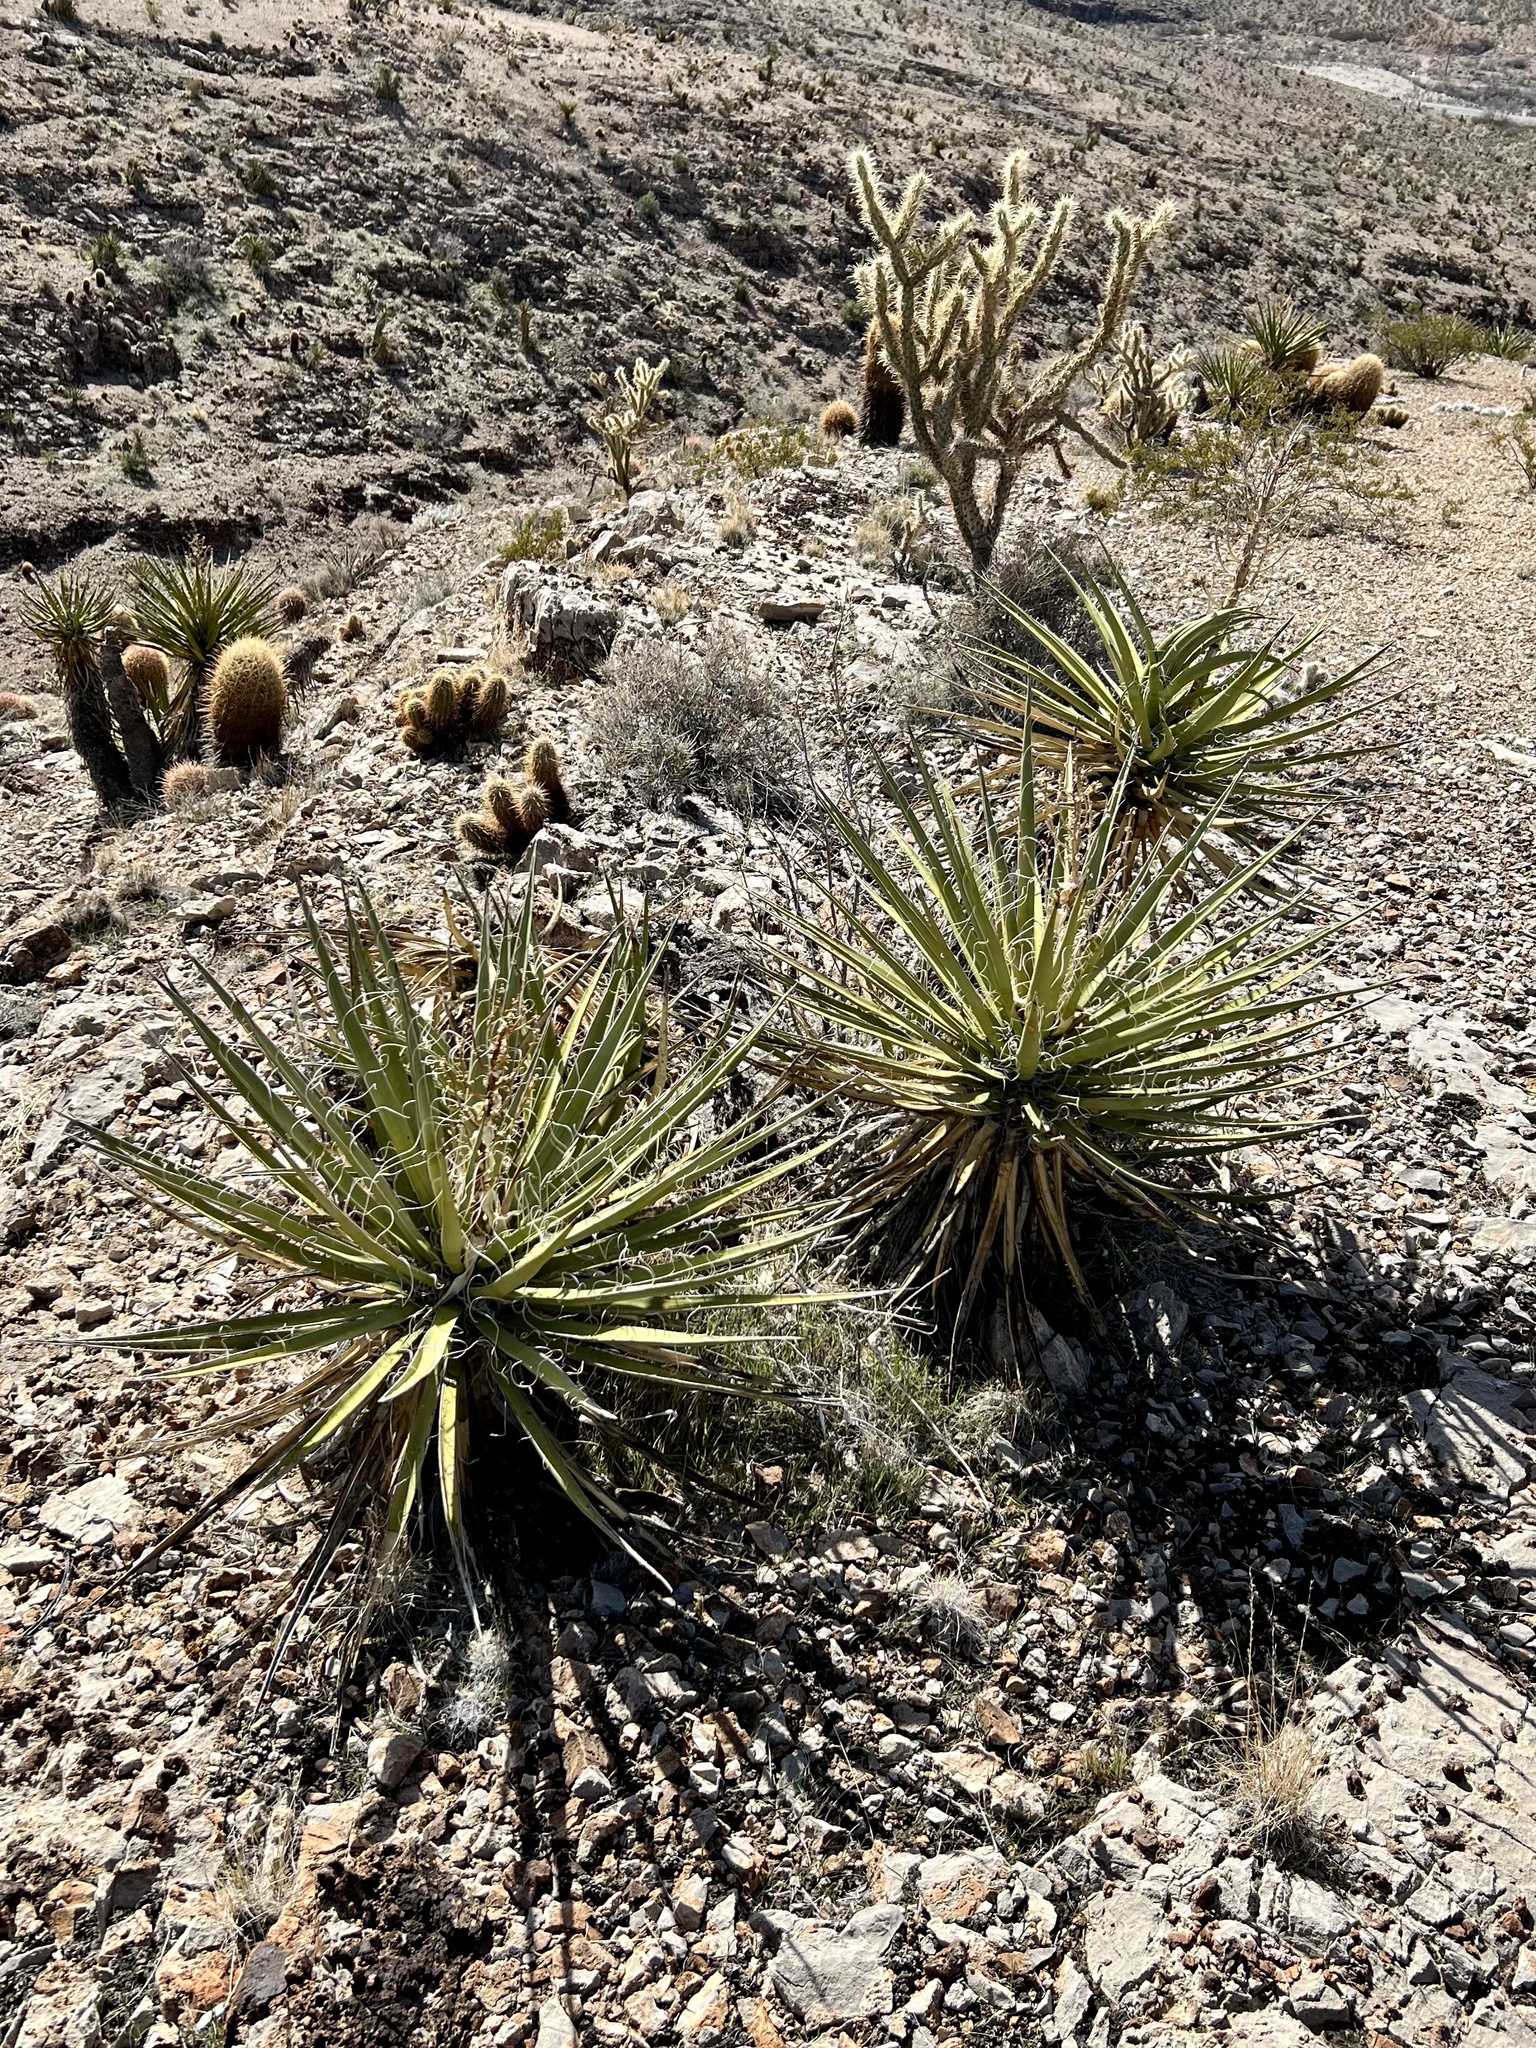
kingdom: Plantae
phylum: Tracheophyta
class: Liliopsida
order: Asparagales
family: Asparagaceae
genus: Yucca
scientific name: Yucca schidigera
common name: Mojave yucca
